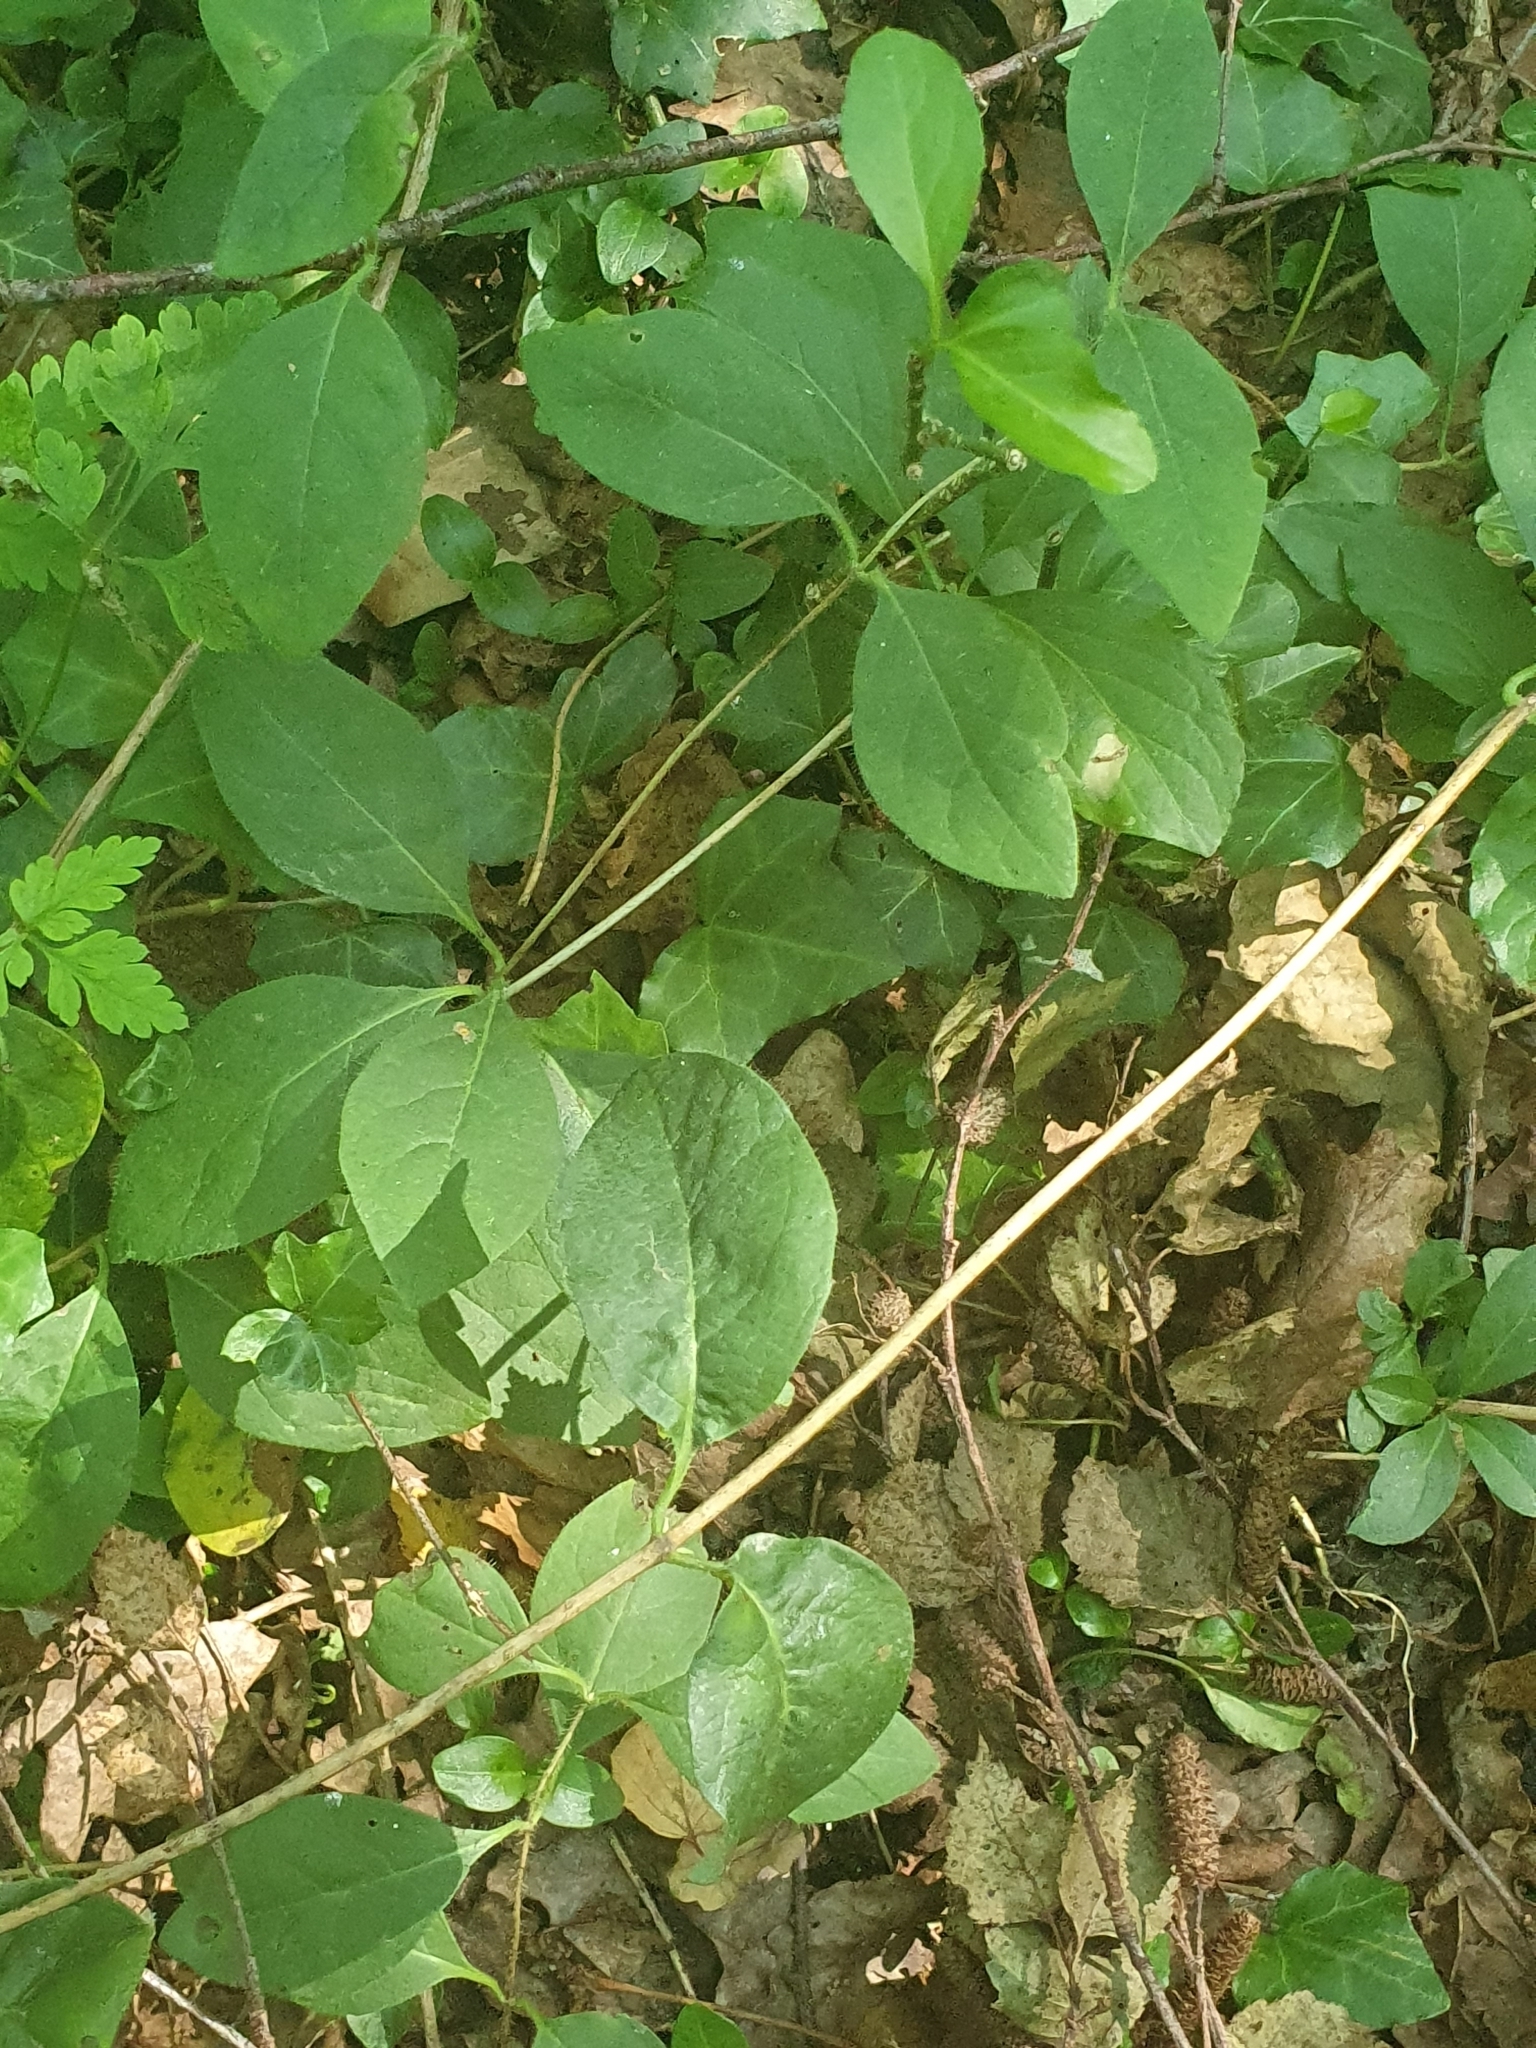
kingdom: Plantae
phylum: Tracheophyta
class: Magnoliopsida
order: Dipsacales
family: Caprifoliaceae
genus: Lonicera
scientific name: Lonicera periclymenum
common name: European honeysuckle
